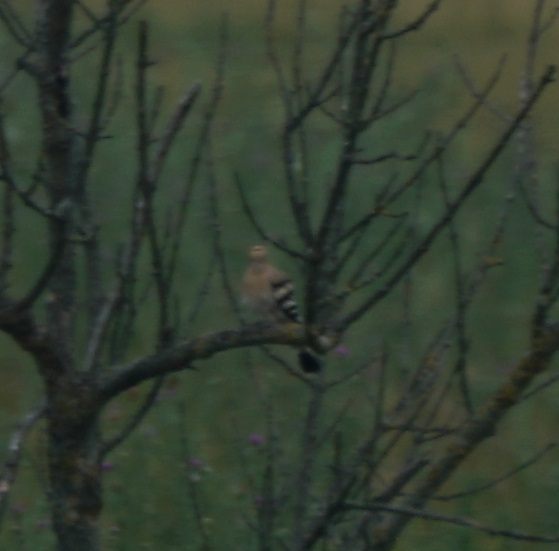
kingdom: Animalia
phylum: Chordata
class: Aves
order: Bucerotiformes
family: Upupidae
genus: Upupa
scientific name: Upupa epops
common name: Eurasian hoopoe
